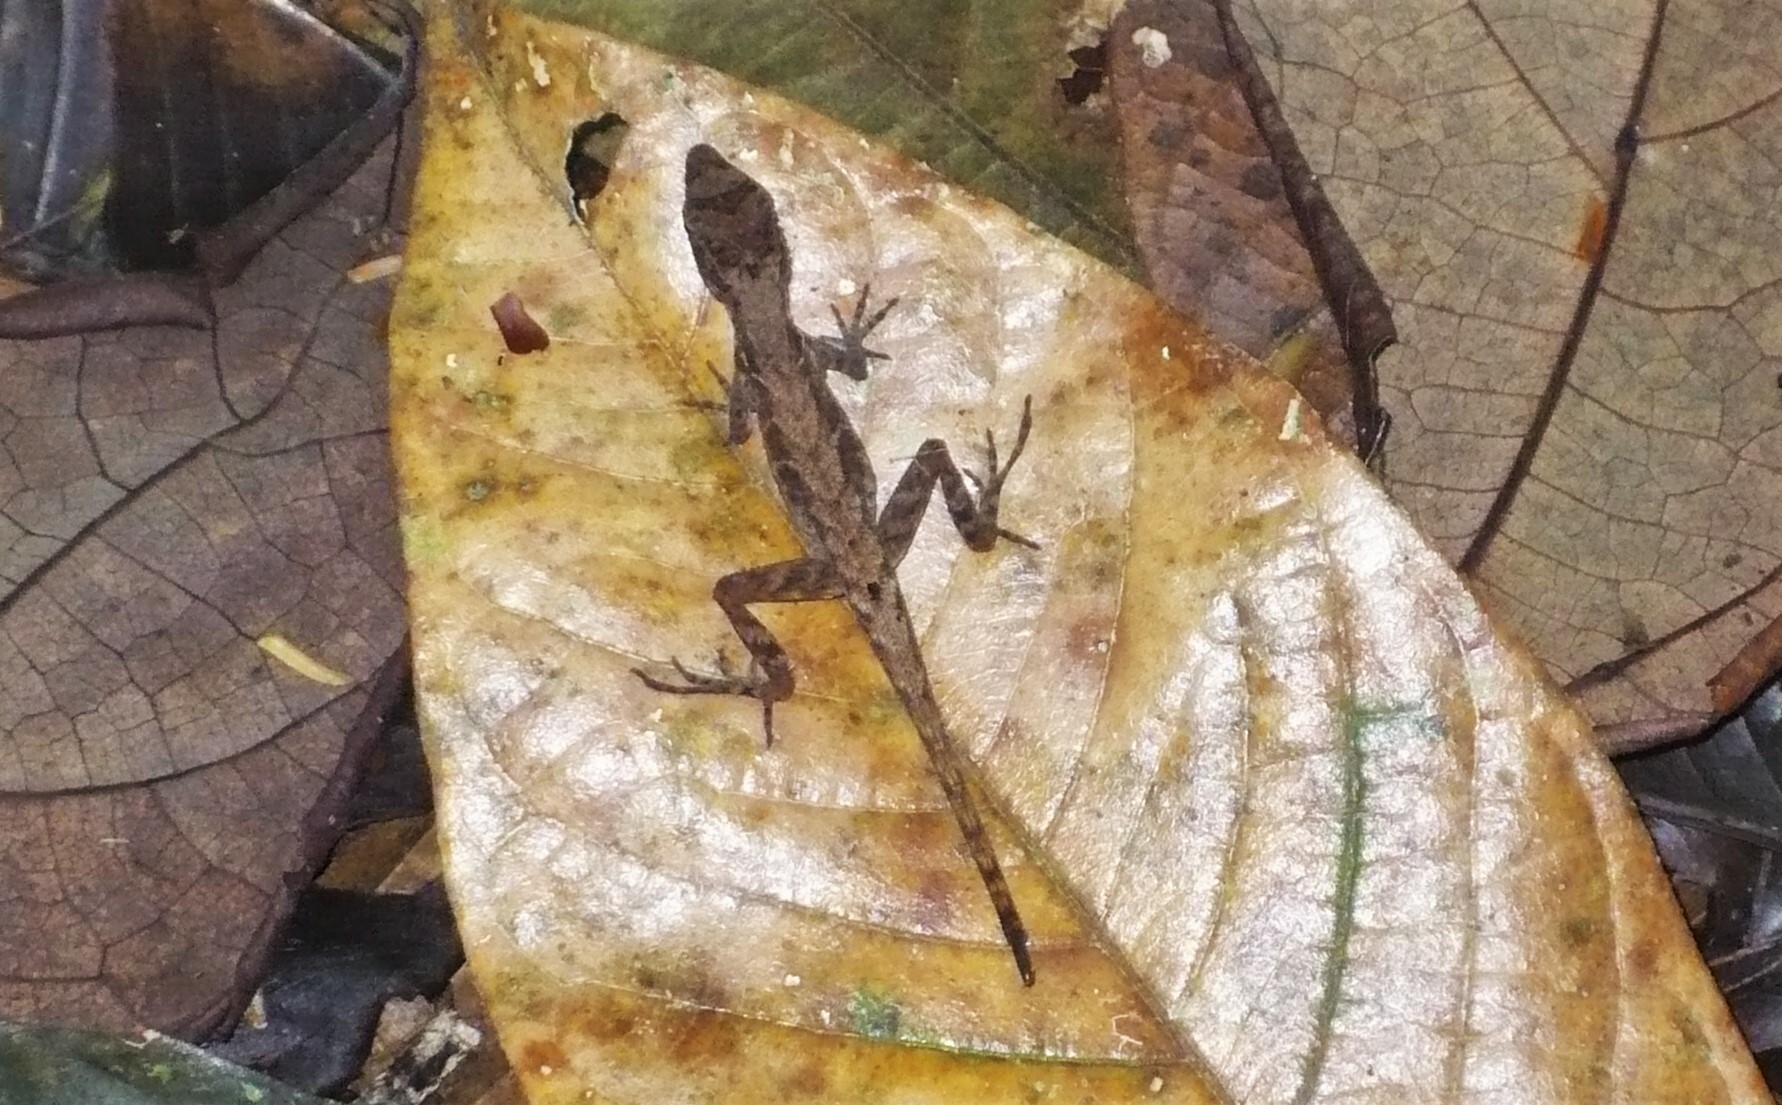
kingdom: Animalia
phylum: Chordata
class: Squamata
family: Dactyloidae
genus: Anolis
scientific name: Anolis humilis
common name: Humble anole
